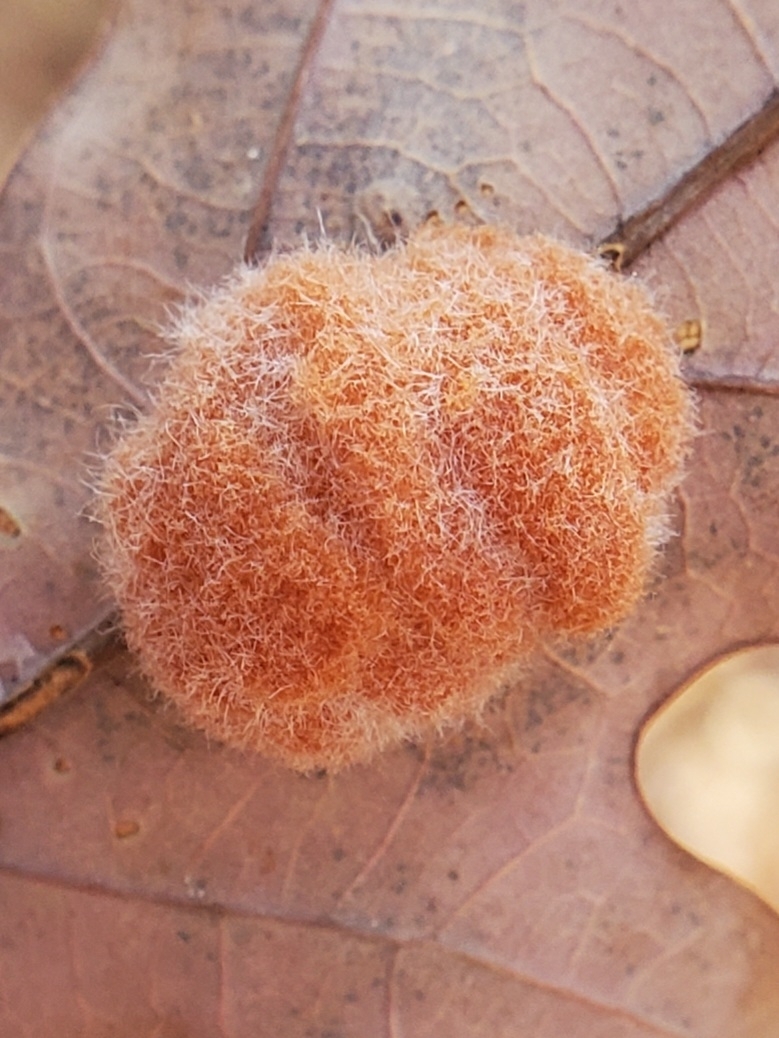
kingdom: Animalia
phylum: Arthropoda
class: Insecta
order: Hymenoptera
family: Cynipidae
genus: Andricus
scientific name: Andricus quercusflocci
